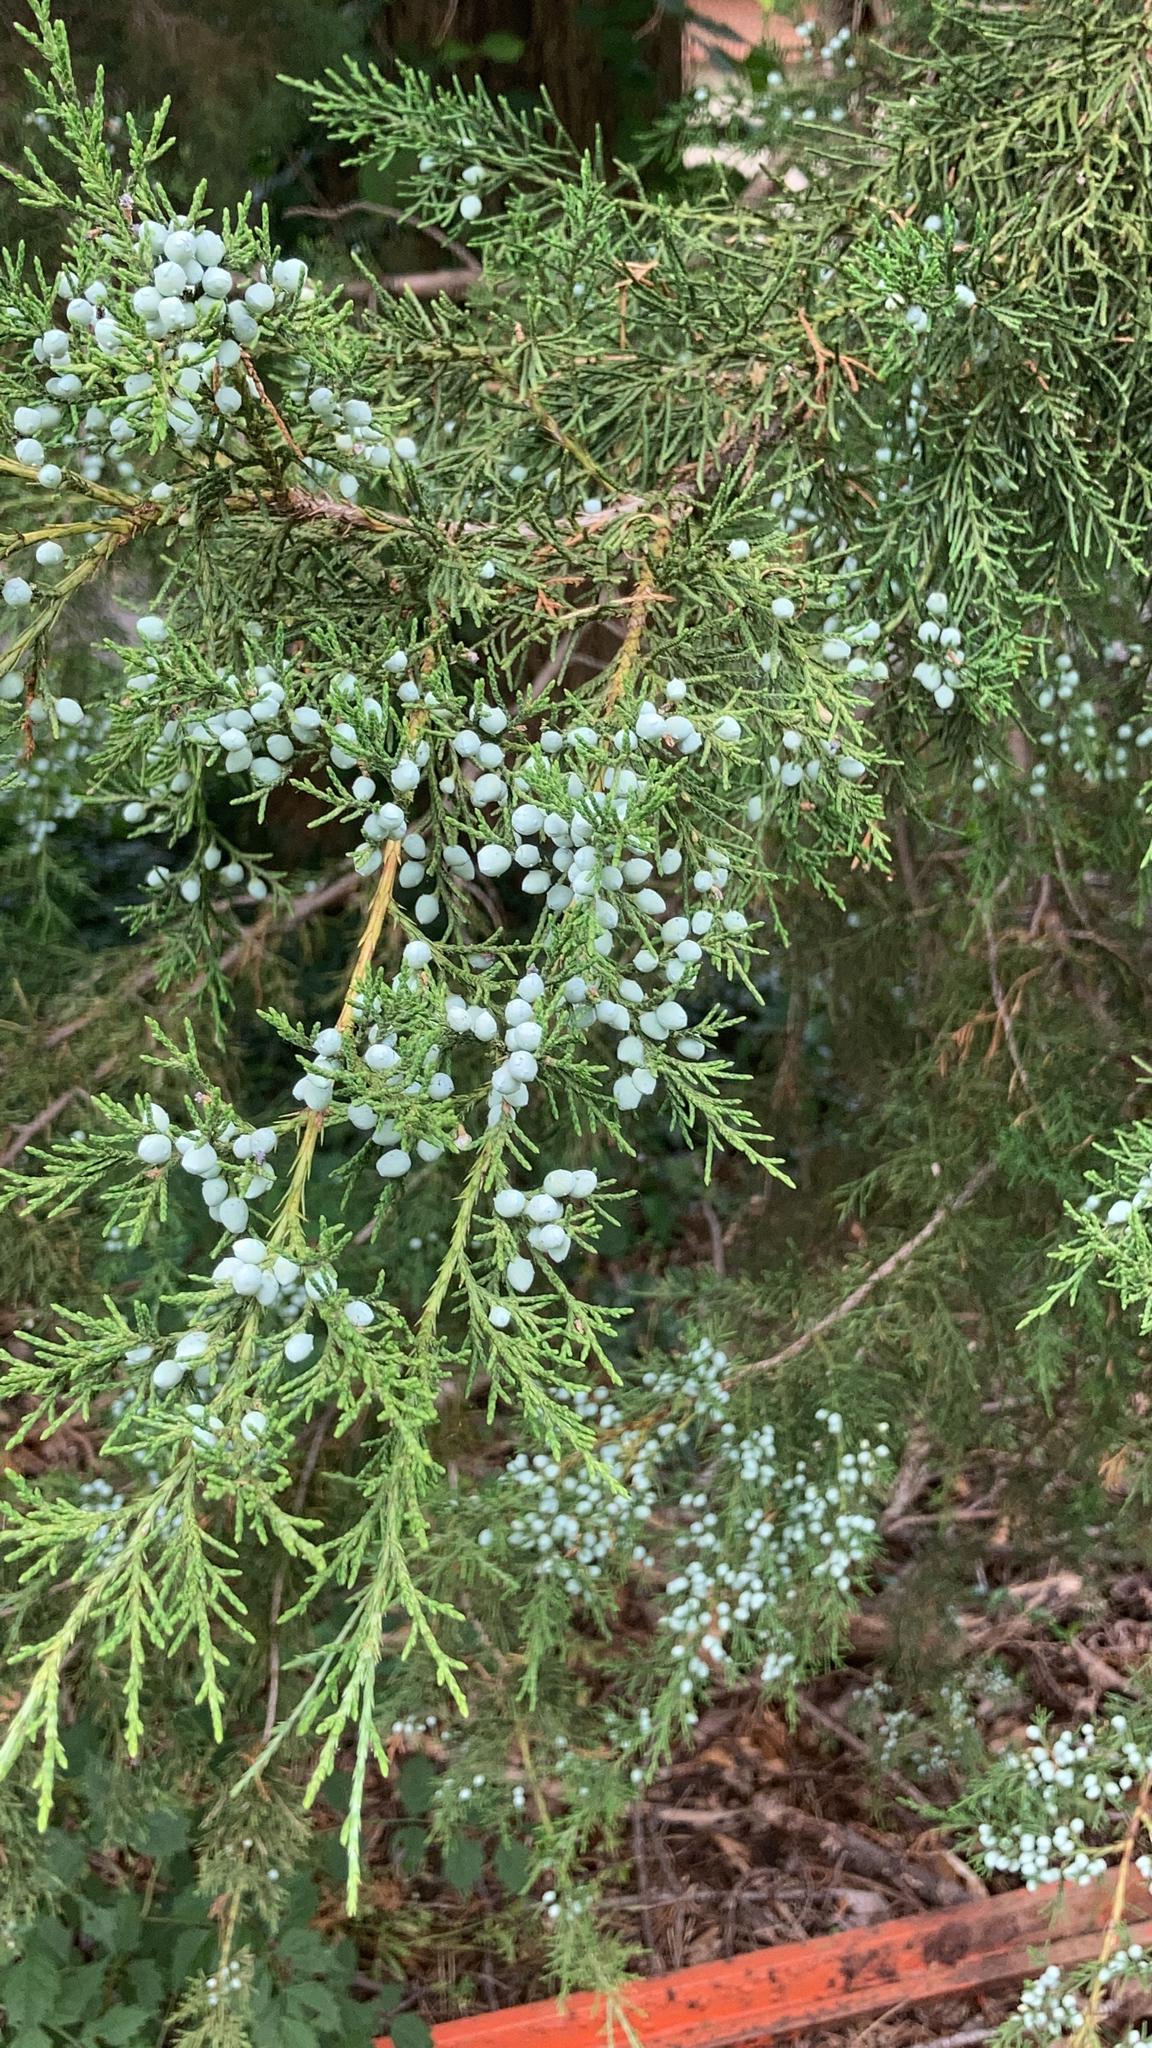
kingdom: Plantae
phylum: Tracheophyta
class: Pinopsida
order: Pinales
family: Cupressaceae
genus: Juniperus
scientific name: Juniperus virginiana
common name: Red juniper
